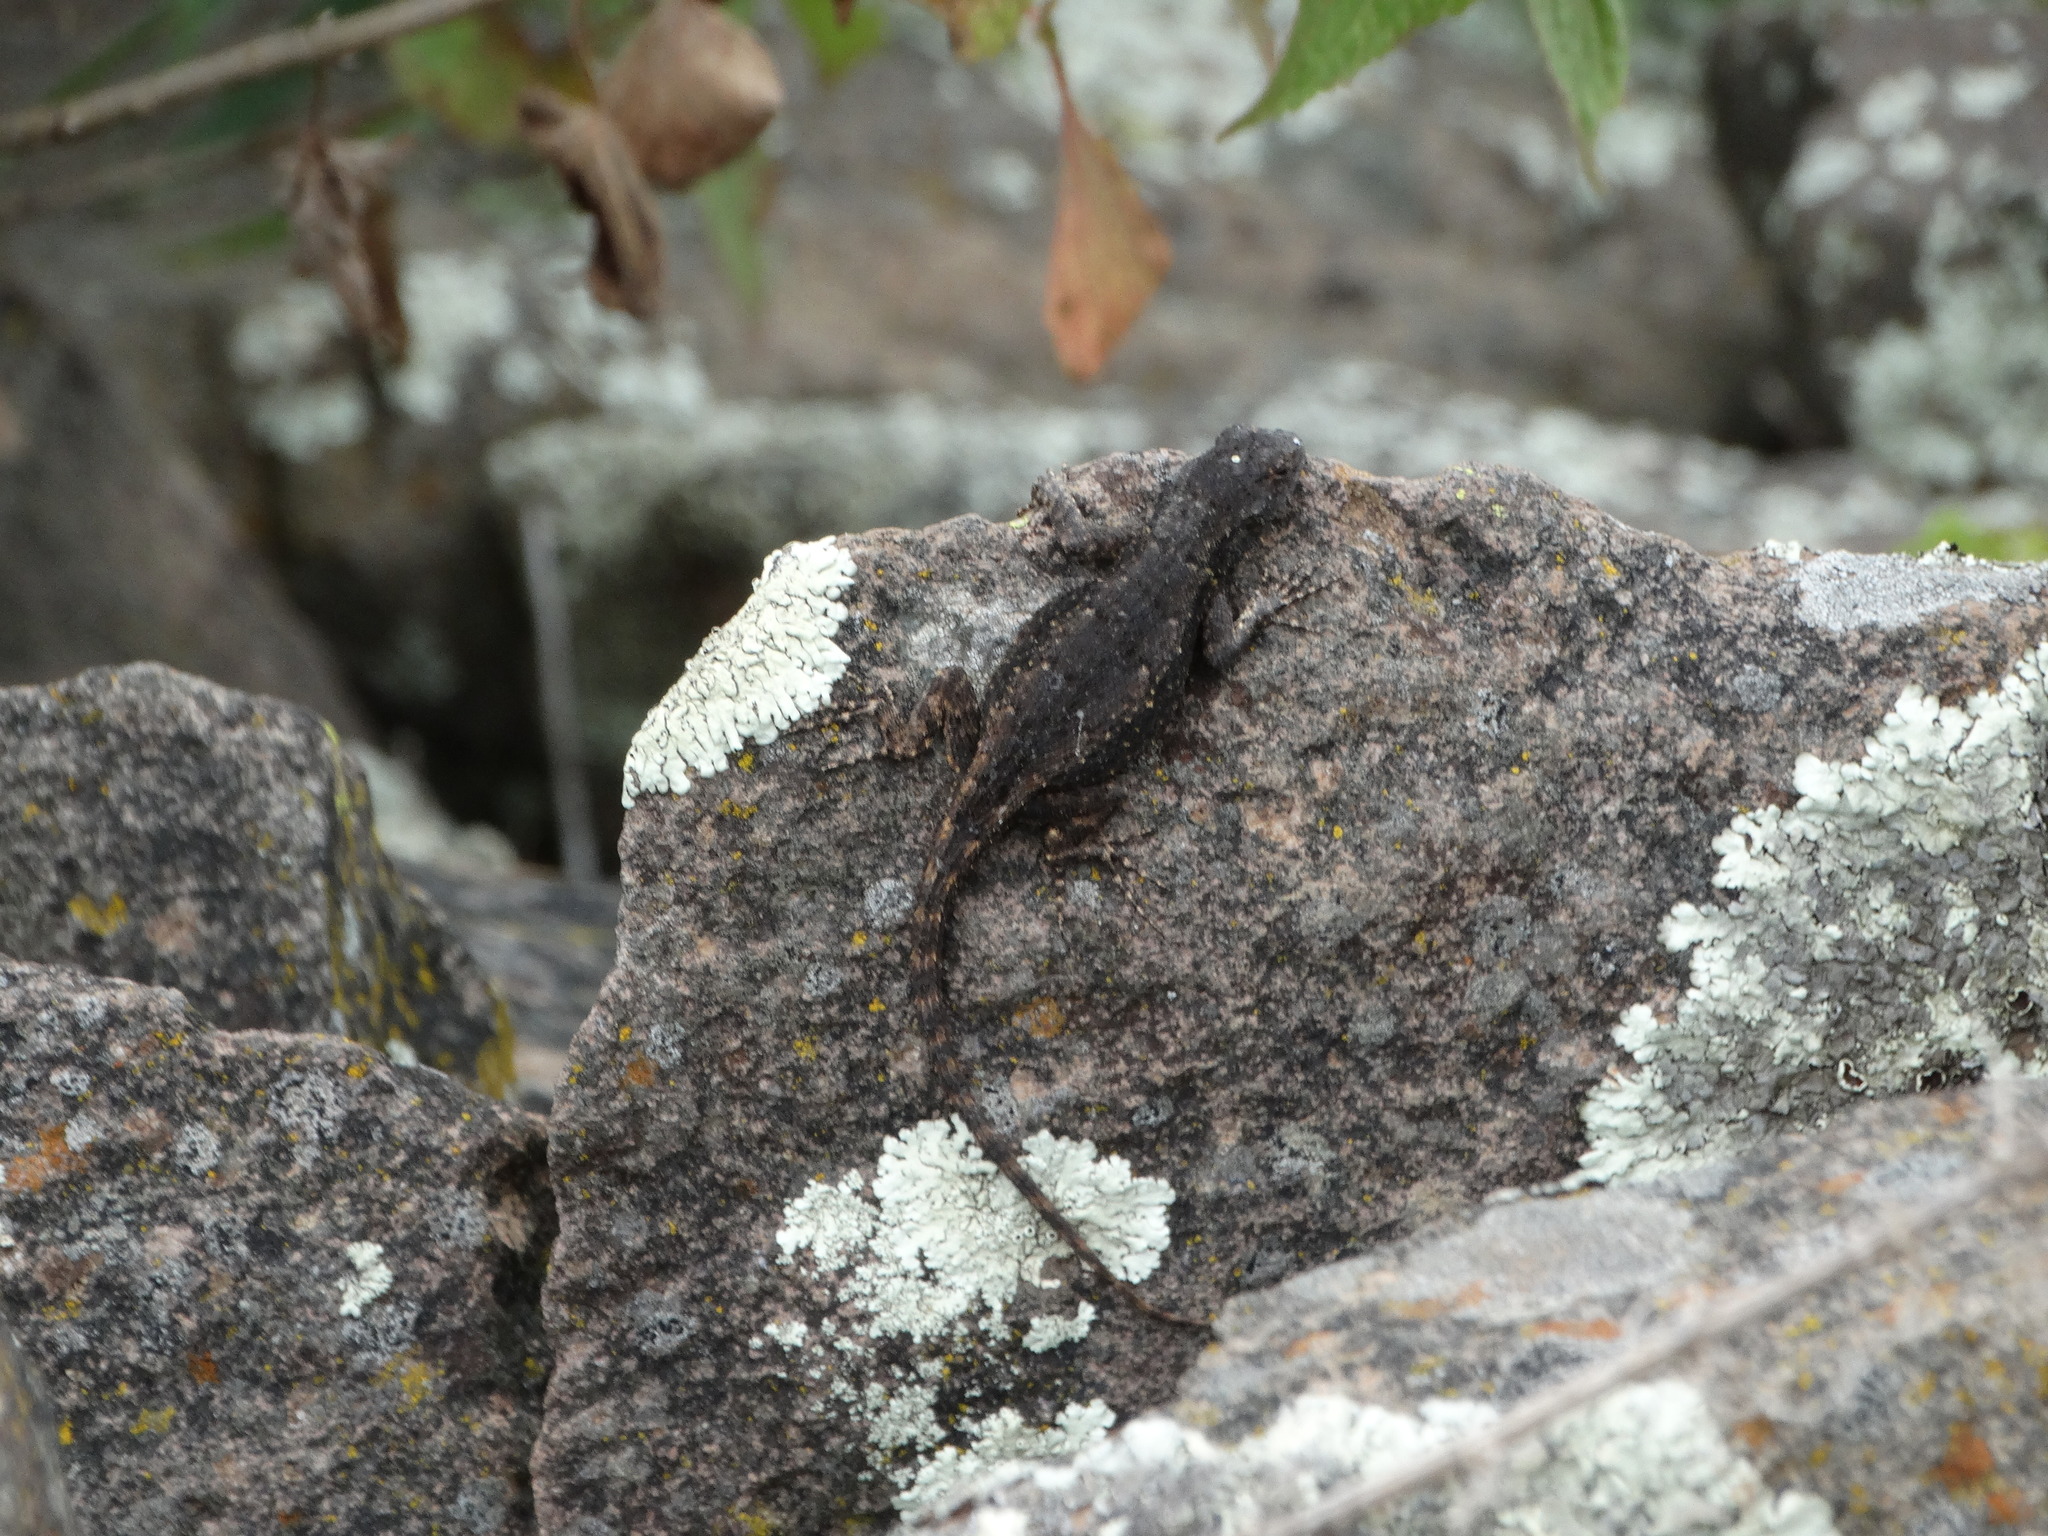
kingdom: Animalia
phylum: Chordata
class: Squamata
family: Phrynosomatidae
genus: Sceloporus
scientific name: Sceloporus grammicus
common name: Mesquite lizard
